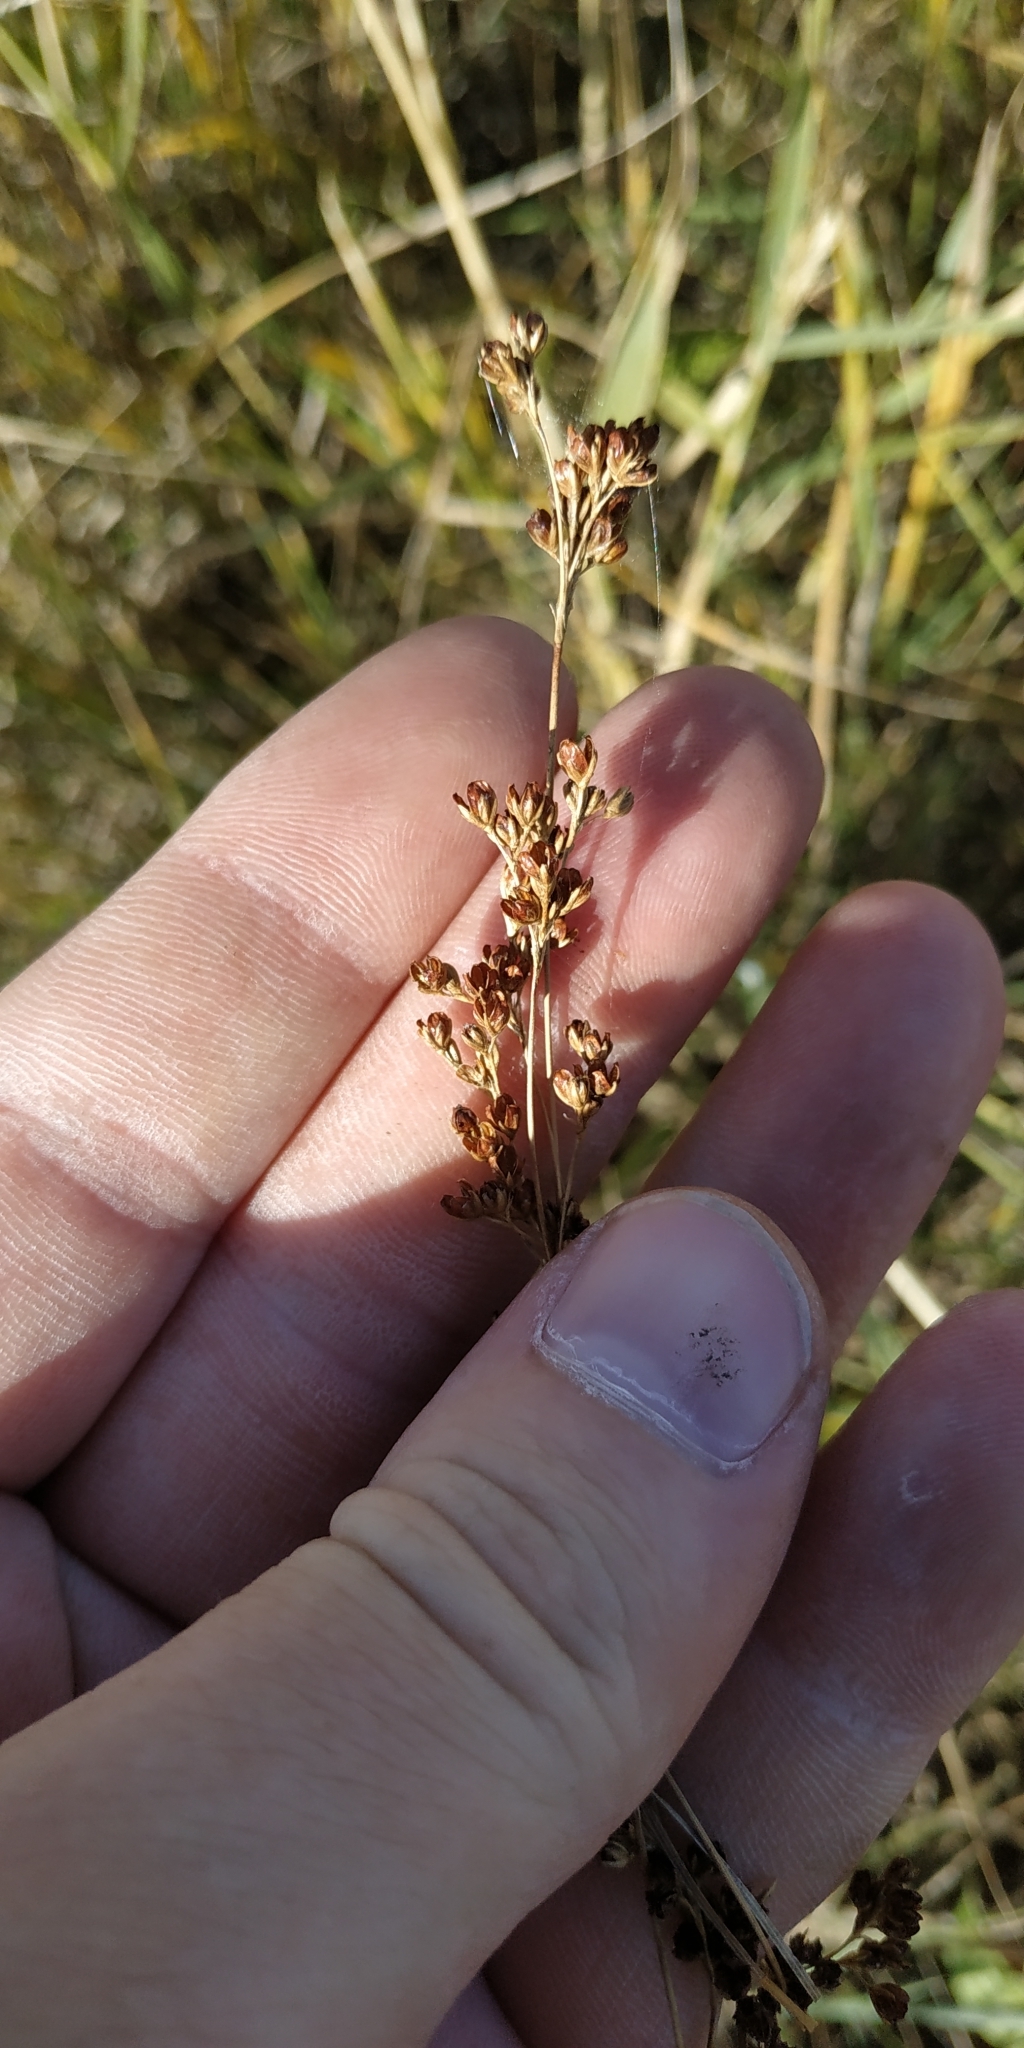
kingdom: Plantae
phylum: Tracheophyta
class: Liliopsida
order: Poales
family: Juncaceae
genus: Juncus
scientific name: Juncus compressus
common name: Round-fruited rush
